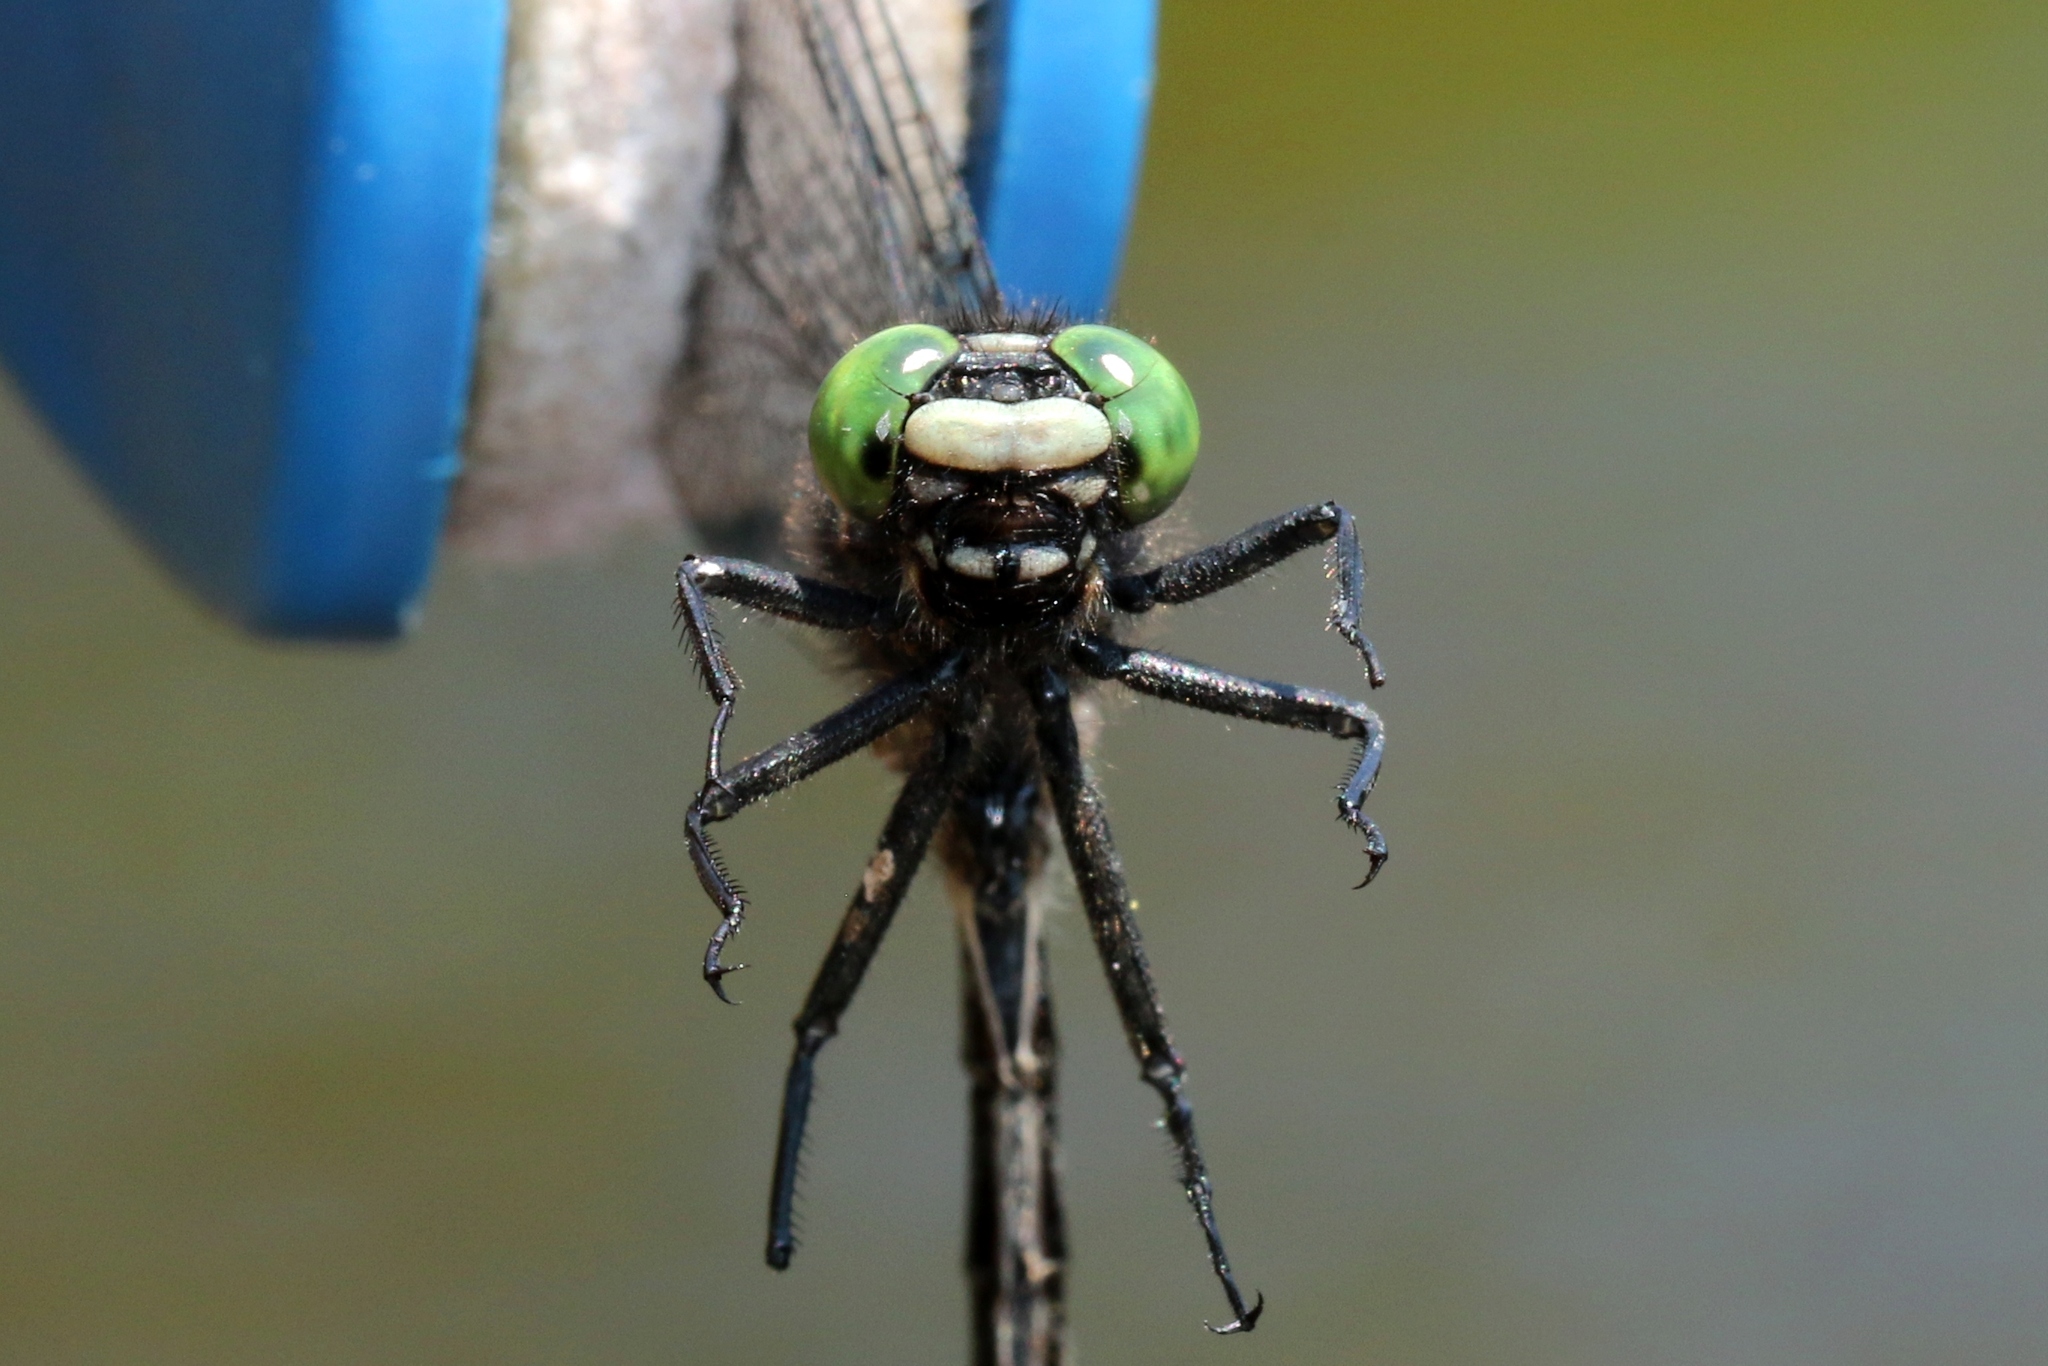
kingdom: Animalia
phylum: Arthropoda
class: Insecta
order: Odonata
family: Gomphidae
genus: Hylogomphus
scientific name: Hylogomphus adelphus
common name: Mustached clubtail
